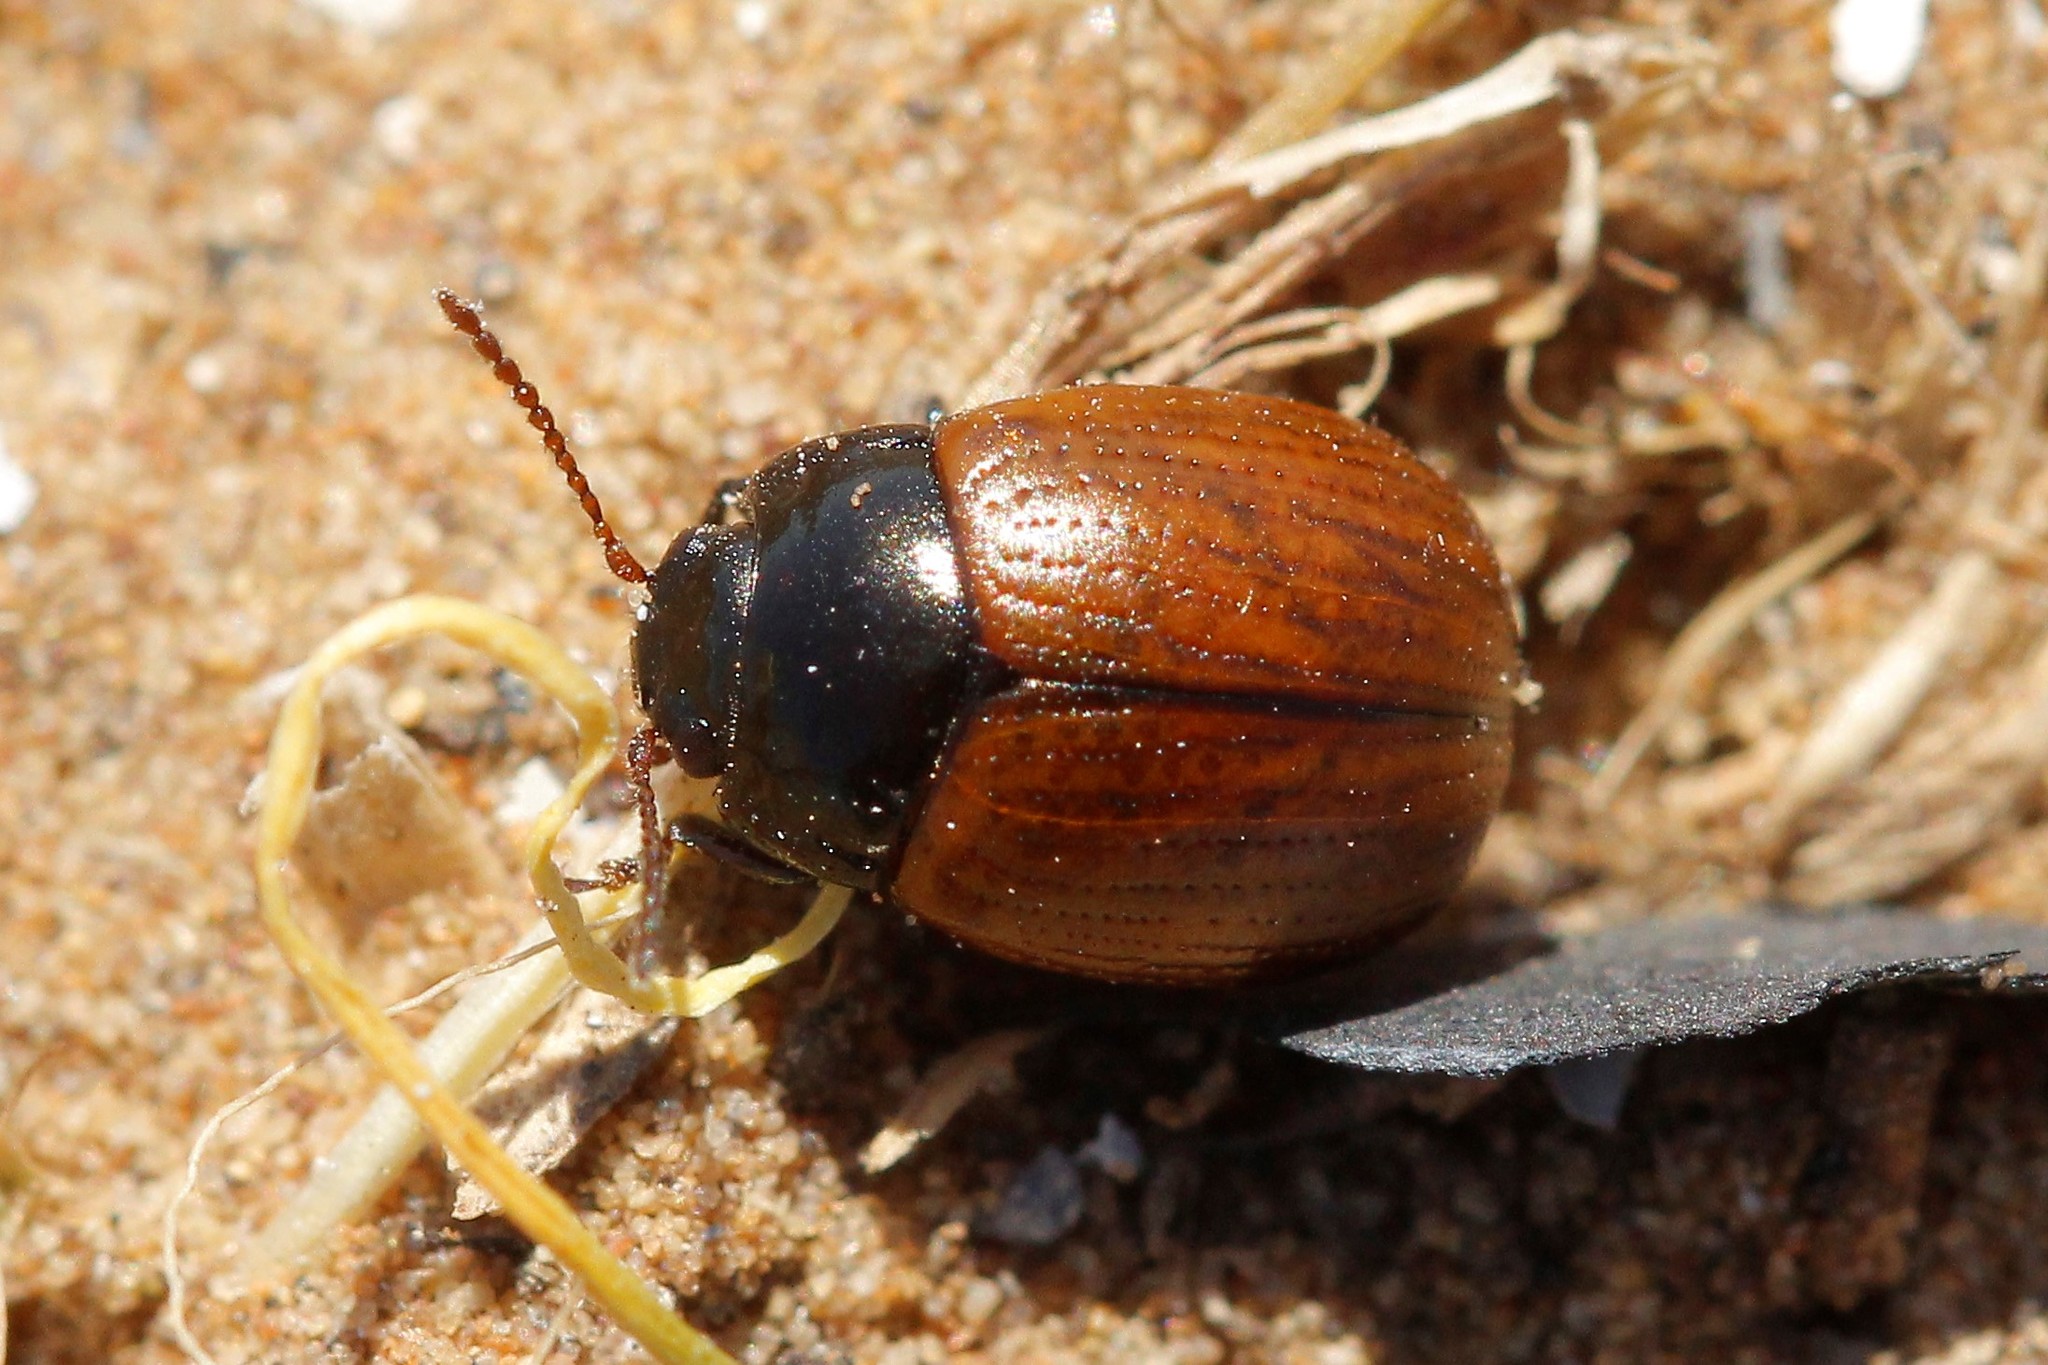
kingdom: Animalia
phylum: Arthropoda
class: Insecta
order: Coleoptera
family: Chrysomelidae
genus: Chrysolina
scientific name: Chrysolina reitteri
